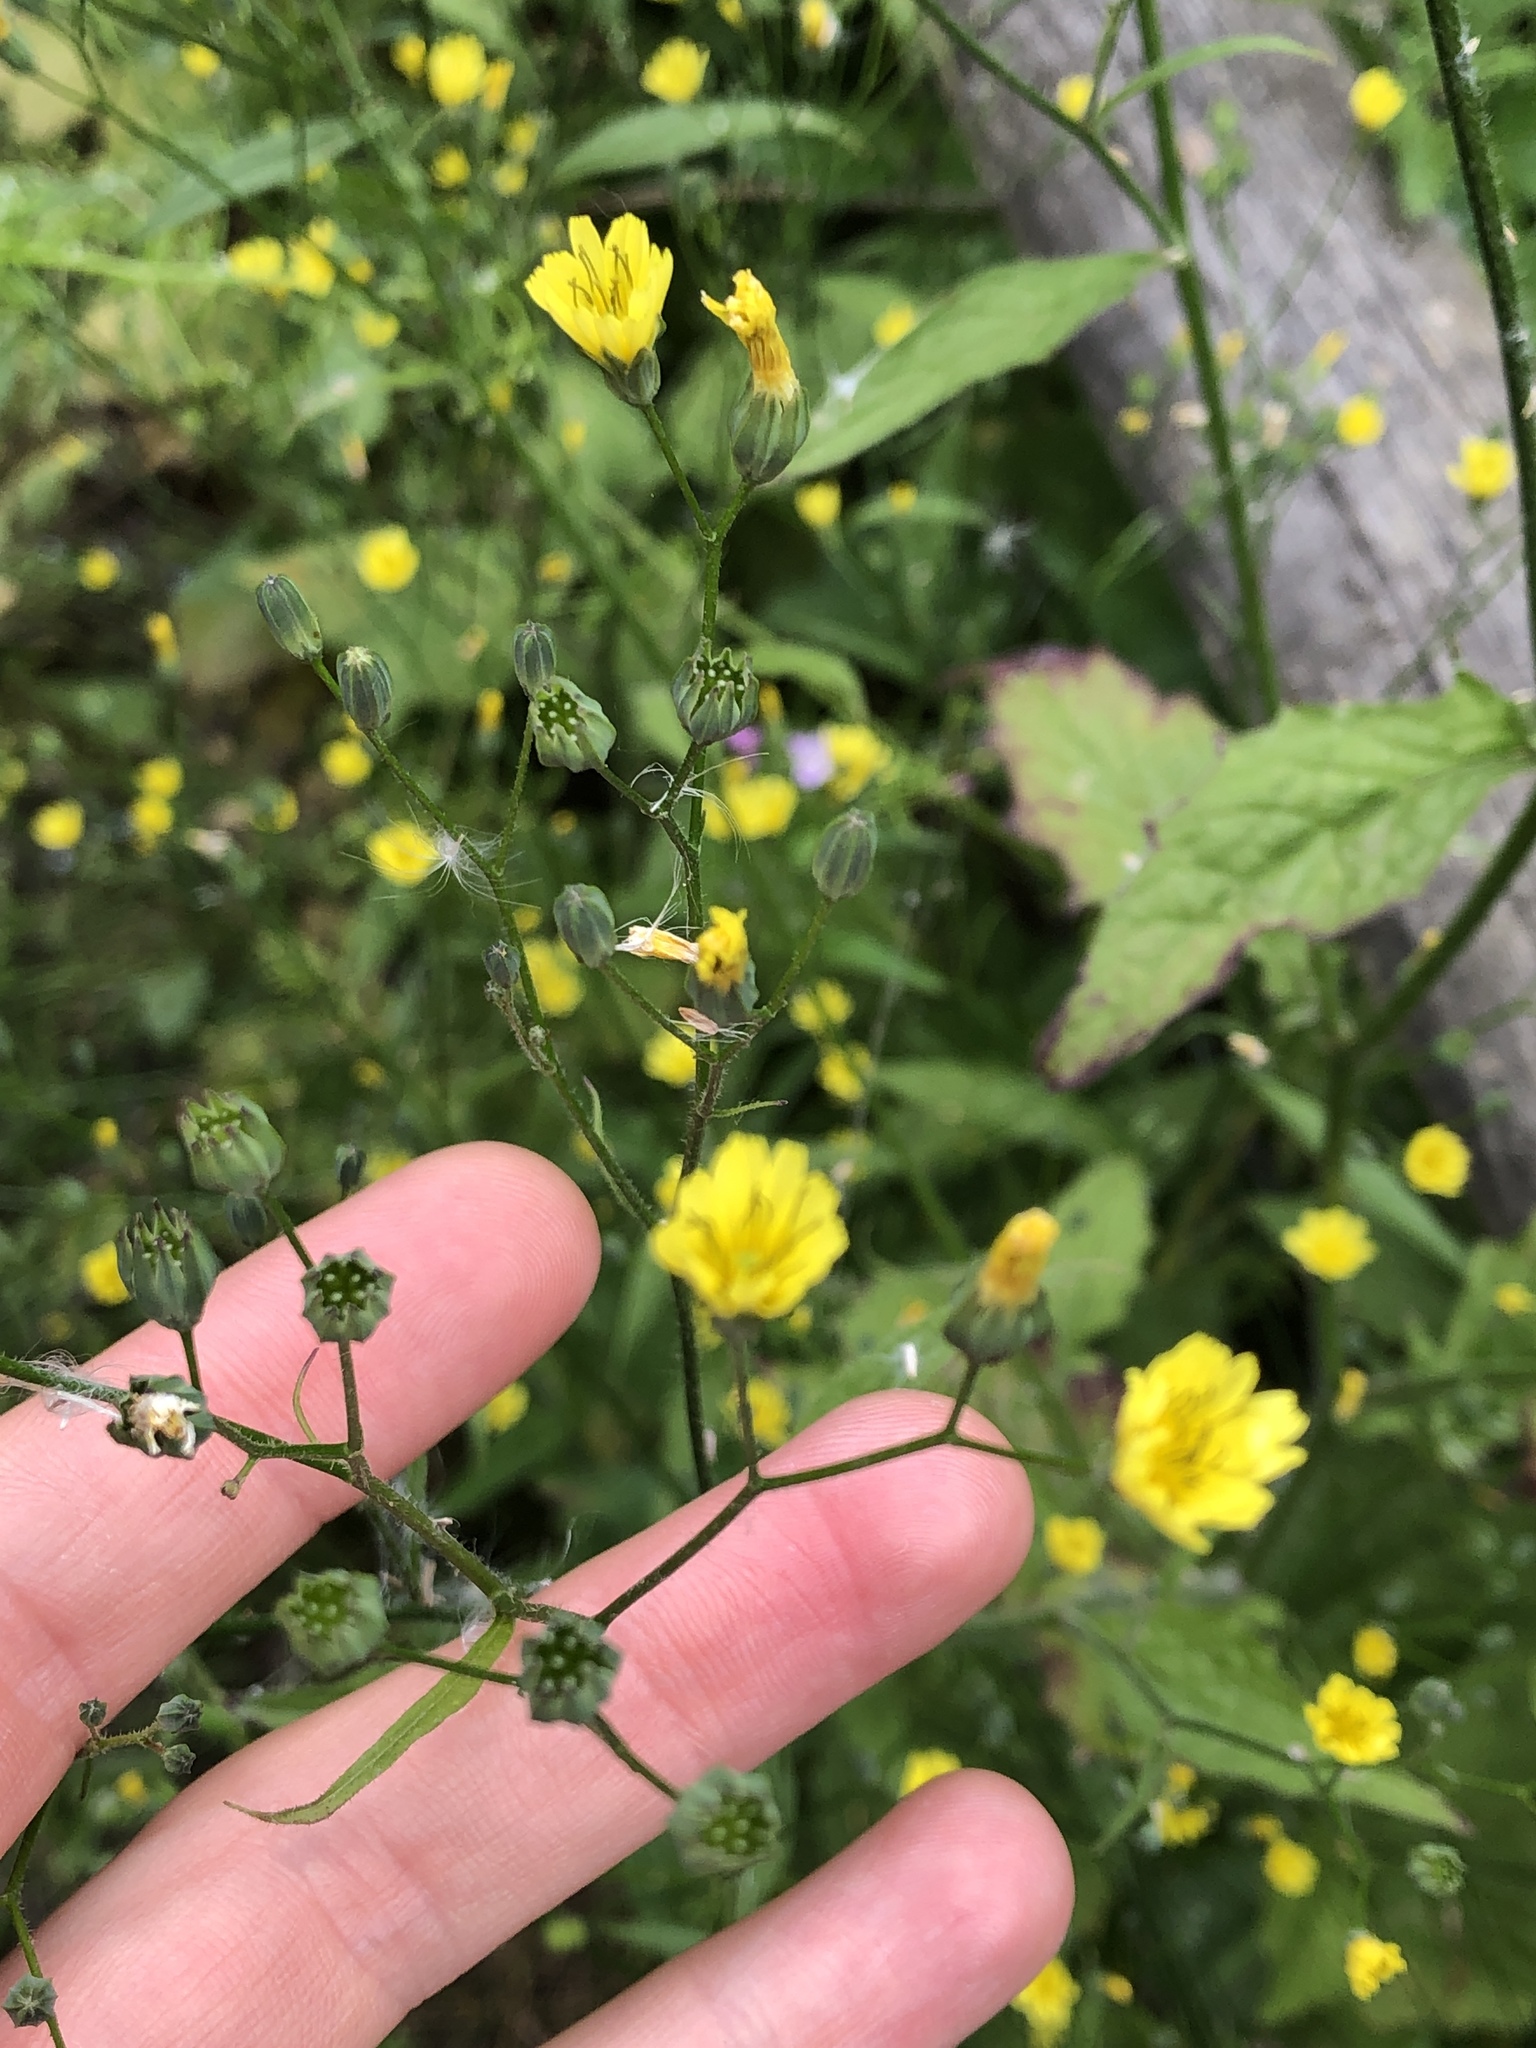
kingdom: Plantae
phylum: Tracheophyta
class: Magnoliopsida
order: Asterales
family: Asteraceae
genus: Lapsana
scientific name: Lapsana communis
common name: Nipplewort
